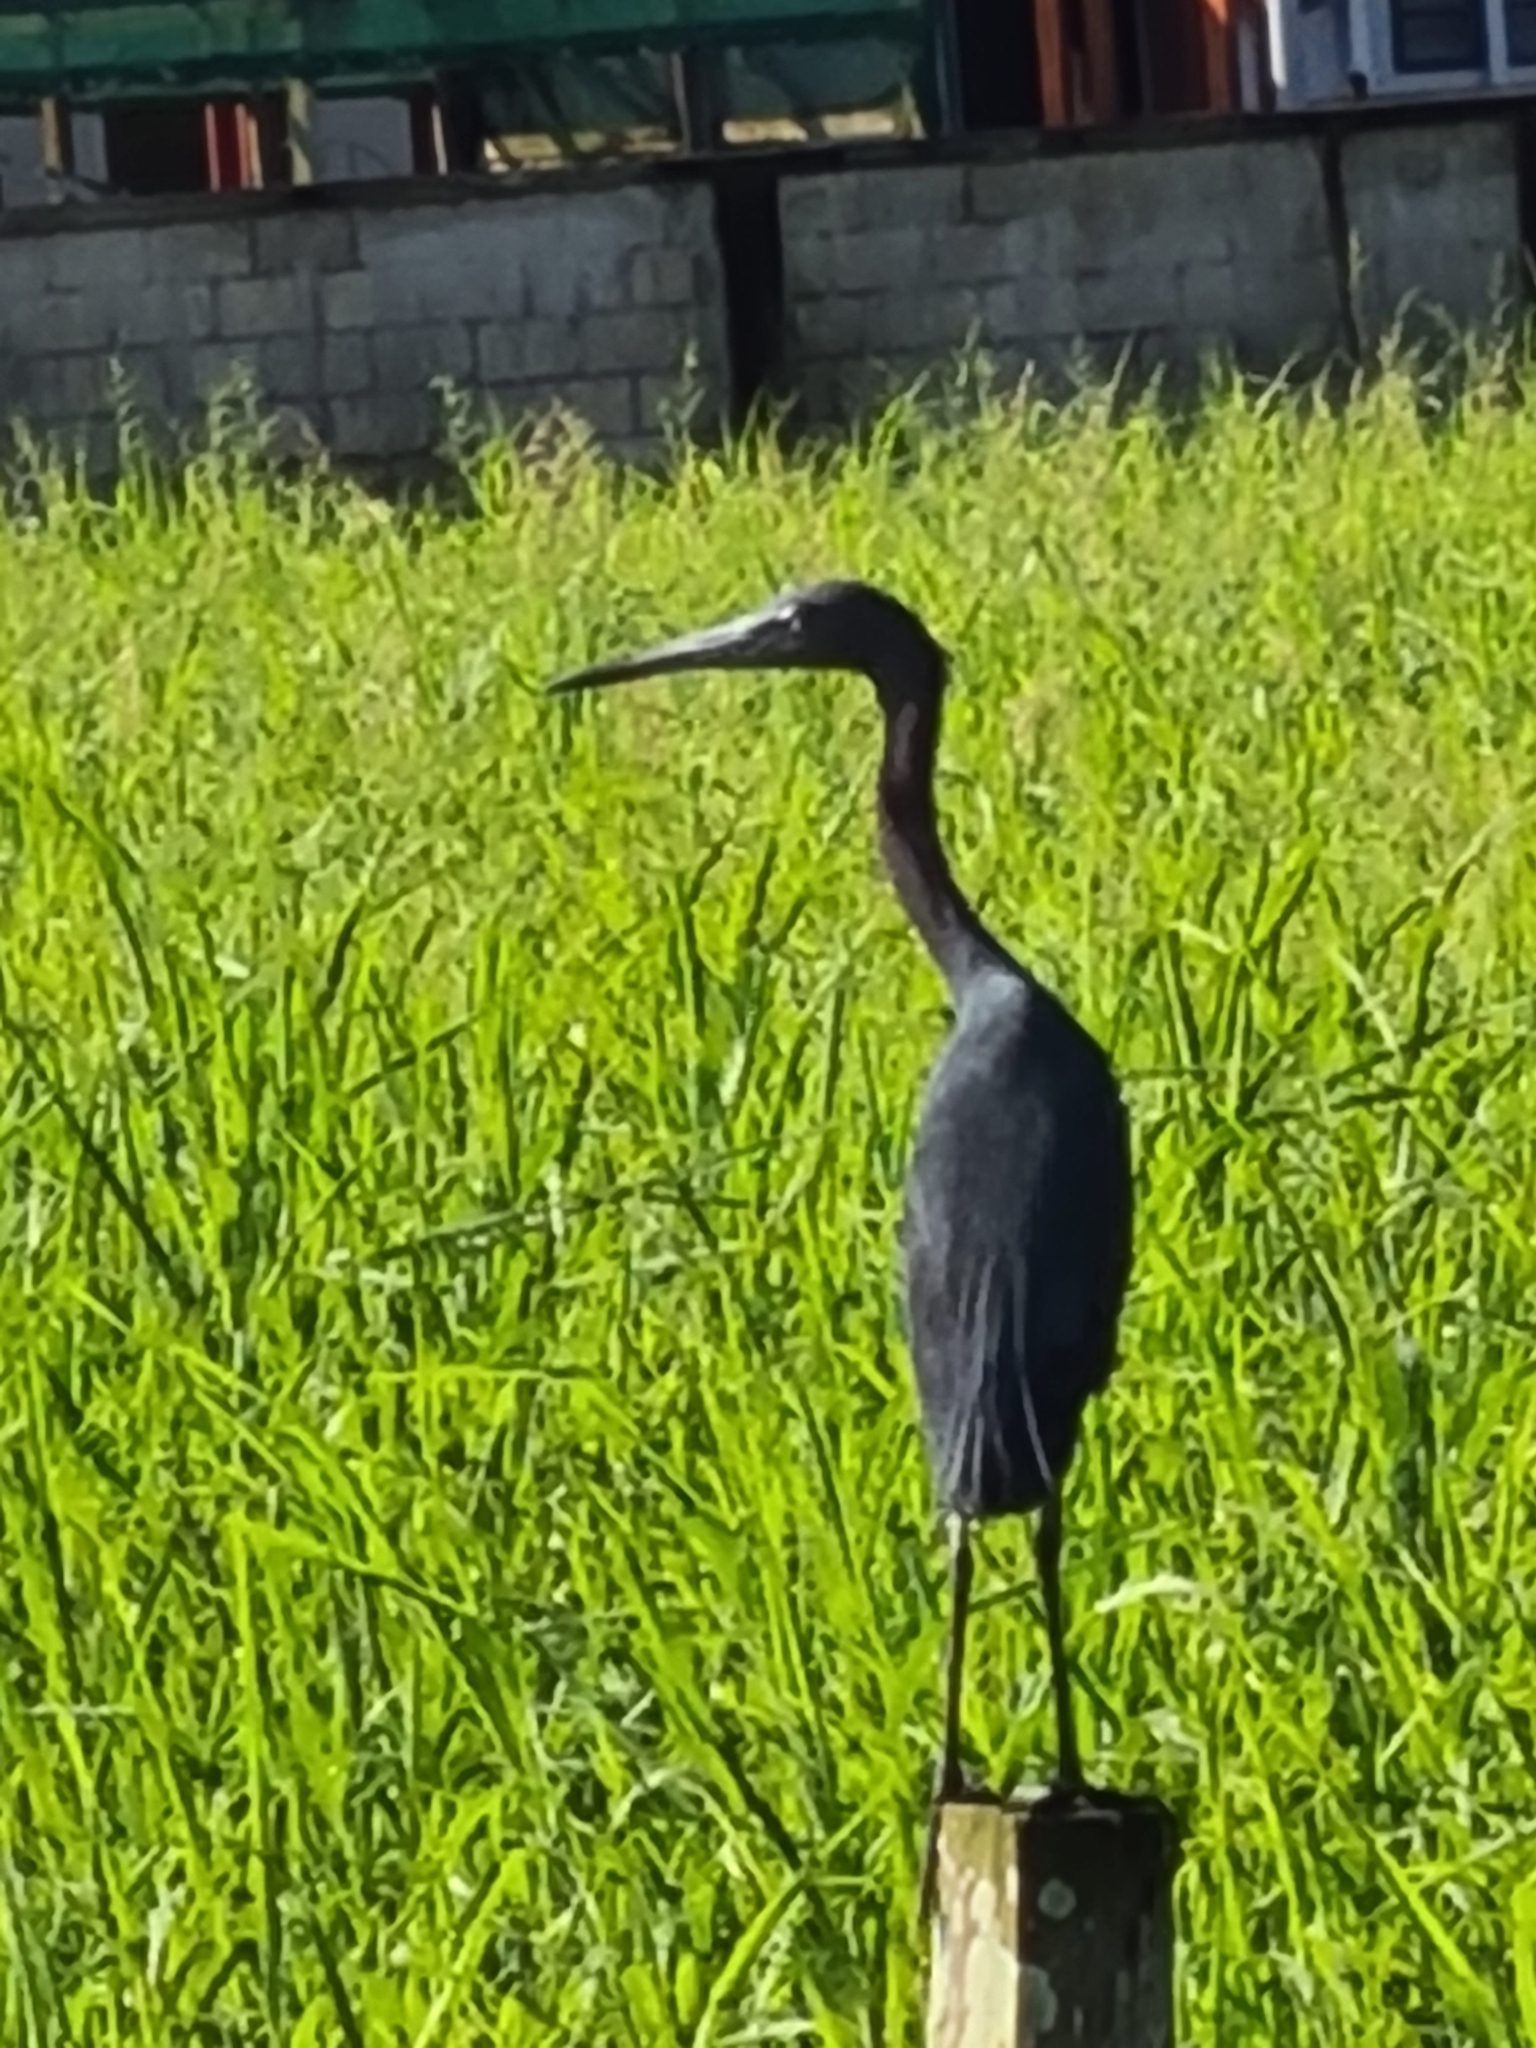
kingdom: Animalia
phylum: Chordata
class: Aves
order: Pelecaniformes
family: Ardeidae
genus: Egretta
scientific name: Egretta caerulea
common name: Little blue heron
